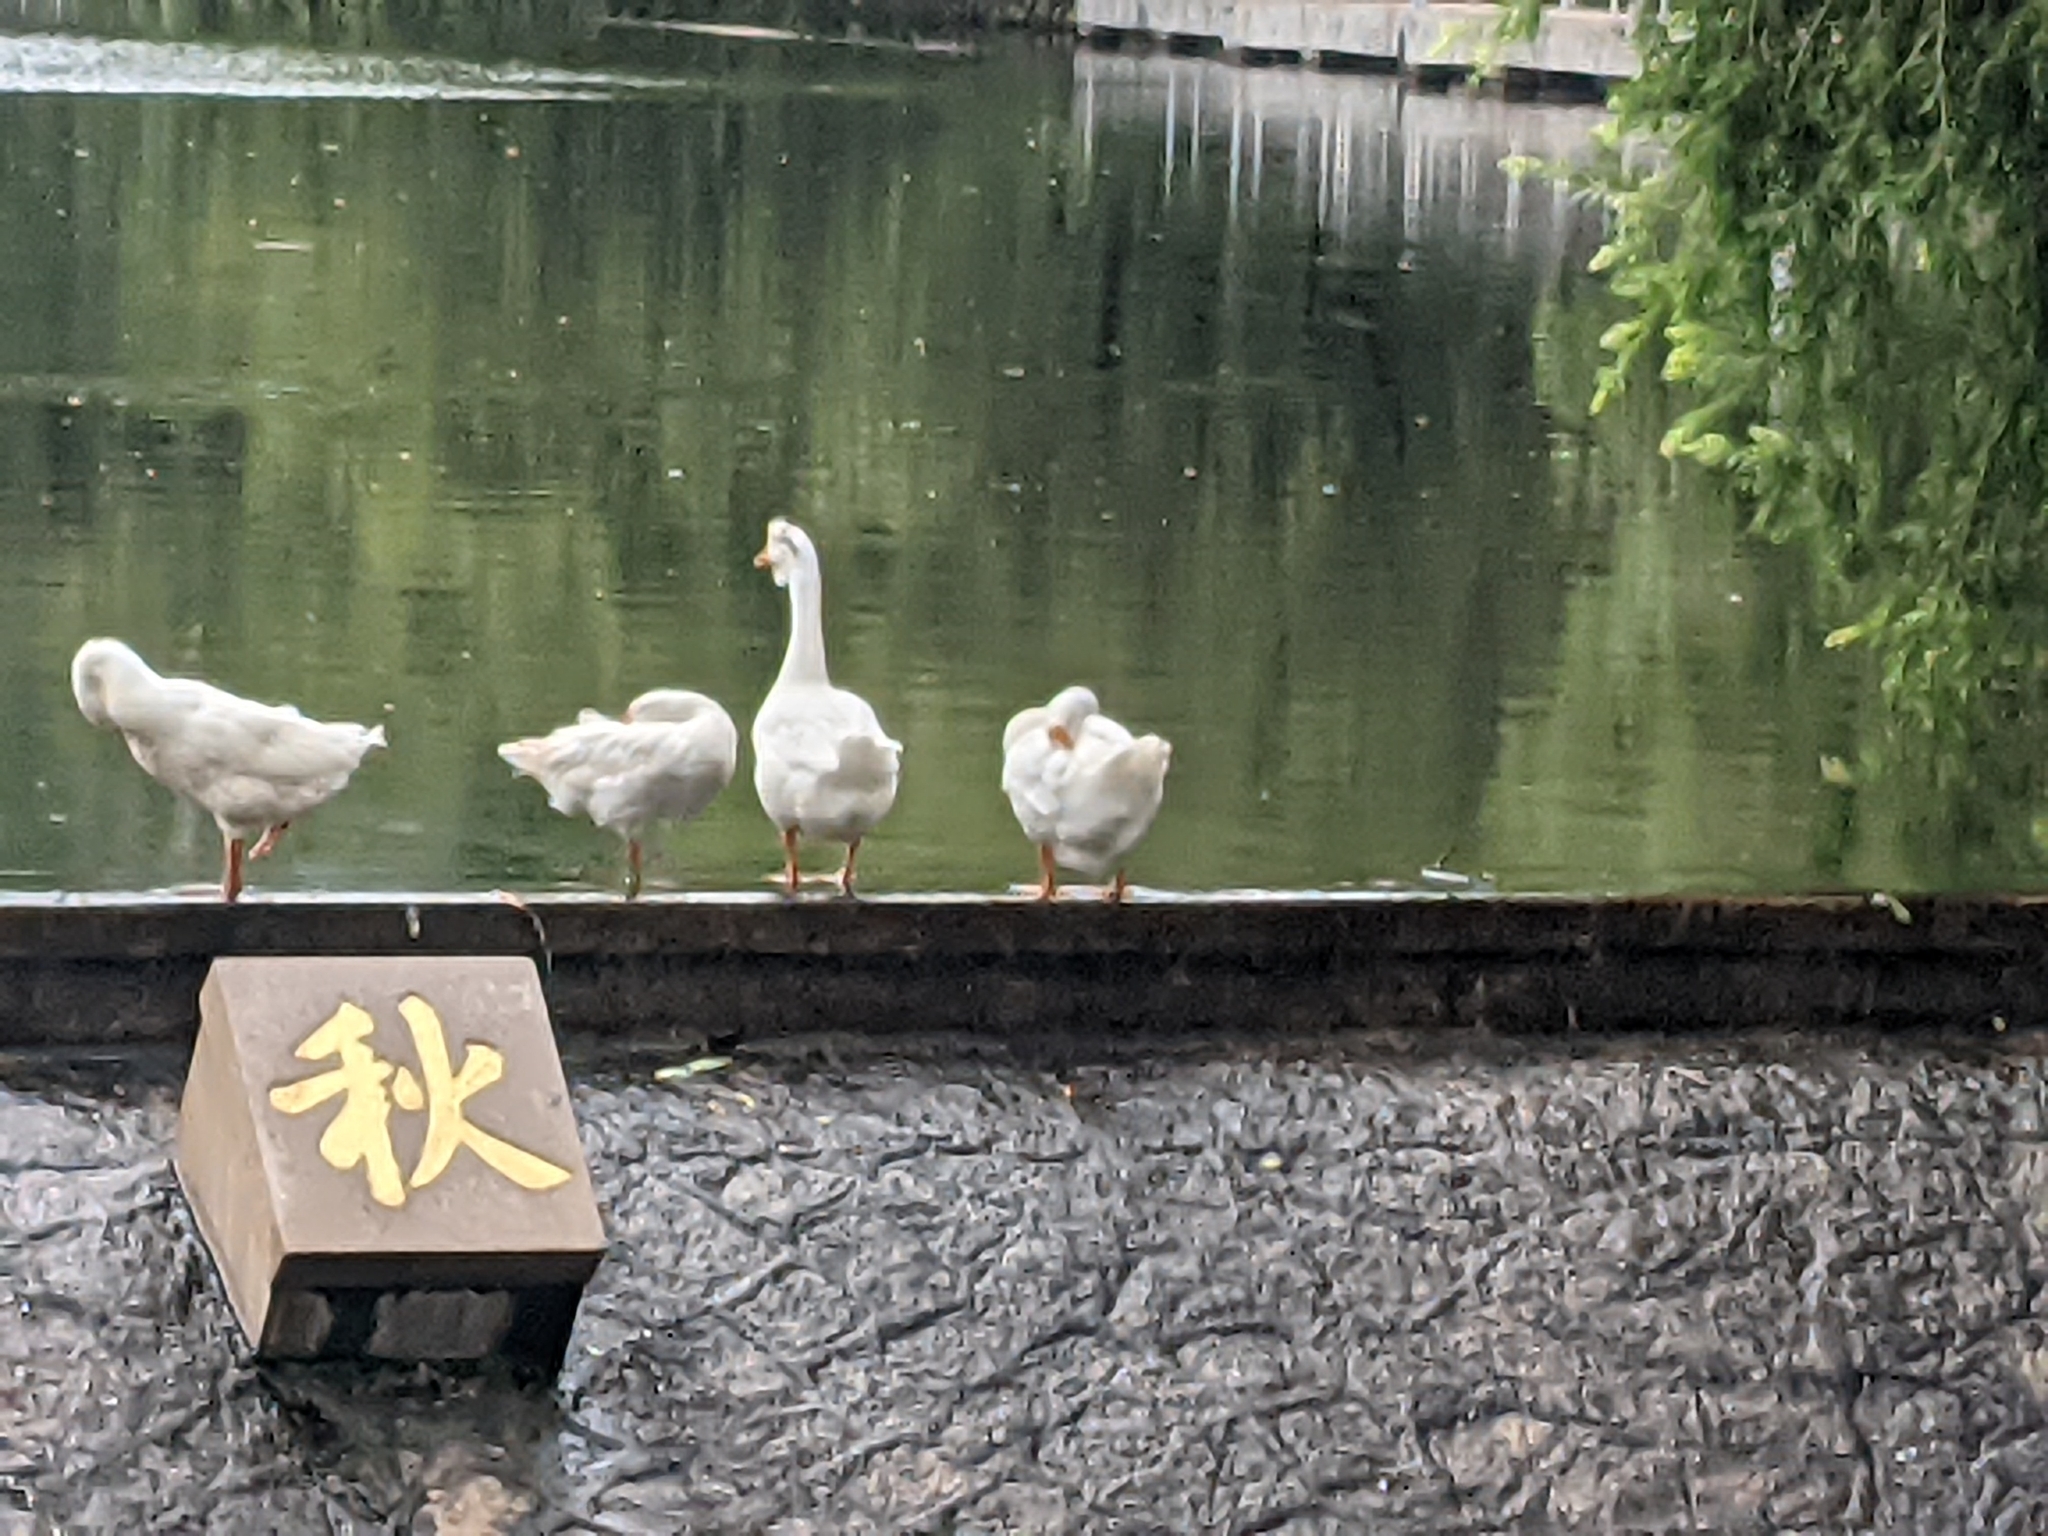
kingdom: Animalia
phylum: Chordata
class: Aves
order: Anseriformes
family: Anatidae
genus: Anser
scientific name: Anser cygnoides
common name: Swan goose
